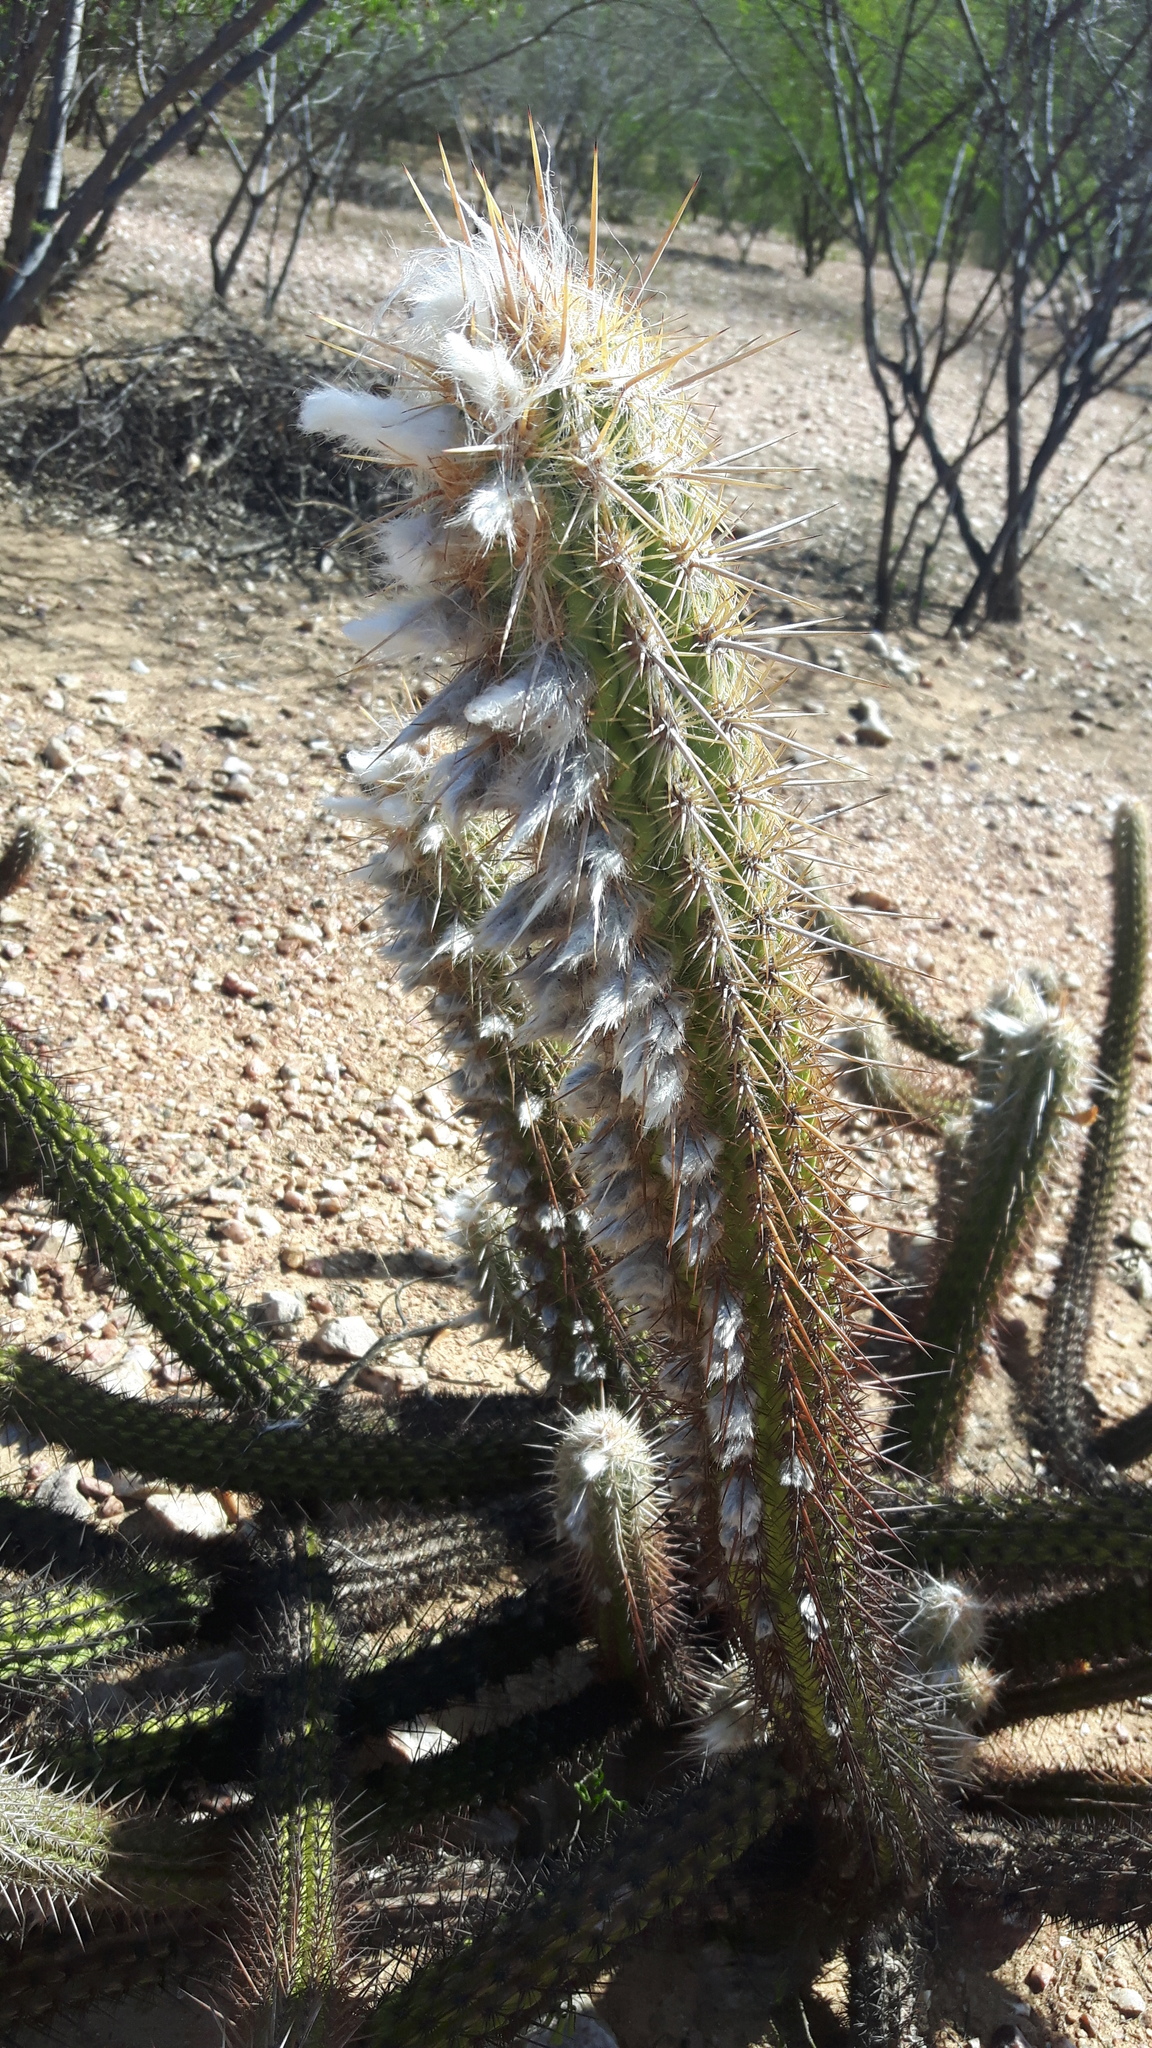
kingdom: Plantae
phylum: Tracheophyta
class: Magnoliopsida
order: Caryophyllales
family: Cactaceae
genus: Xiquexique
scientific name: Xiquexique gounellei
